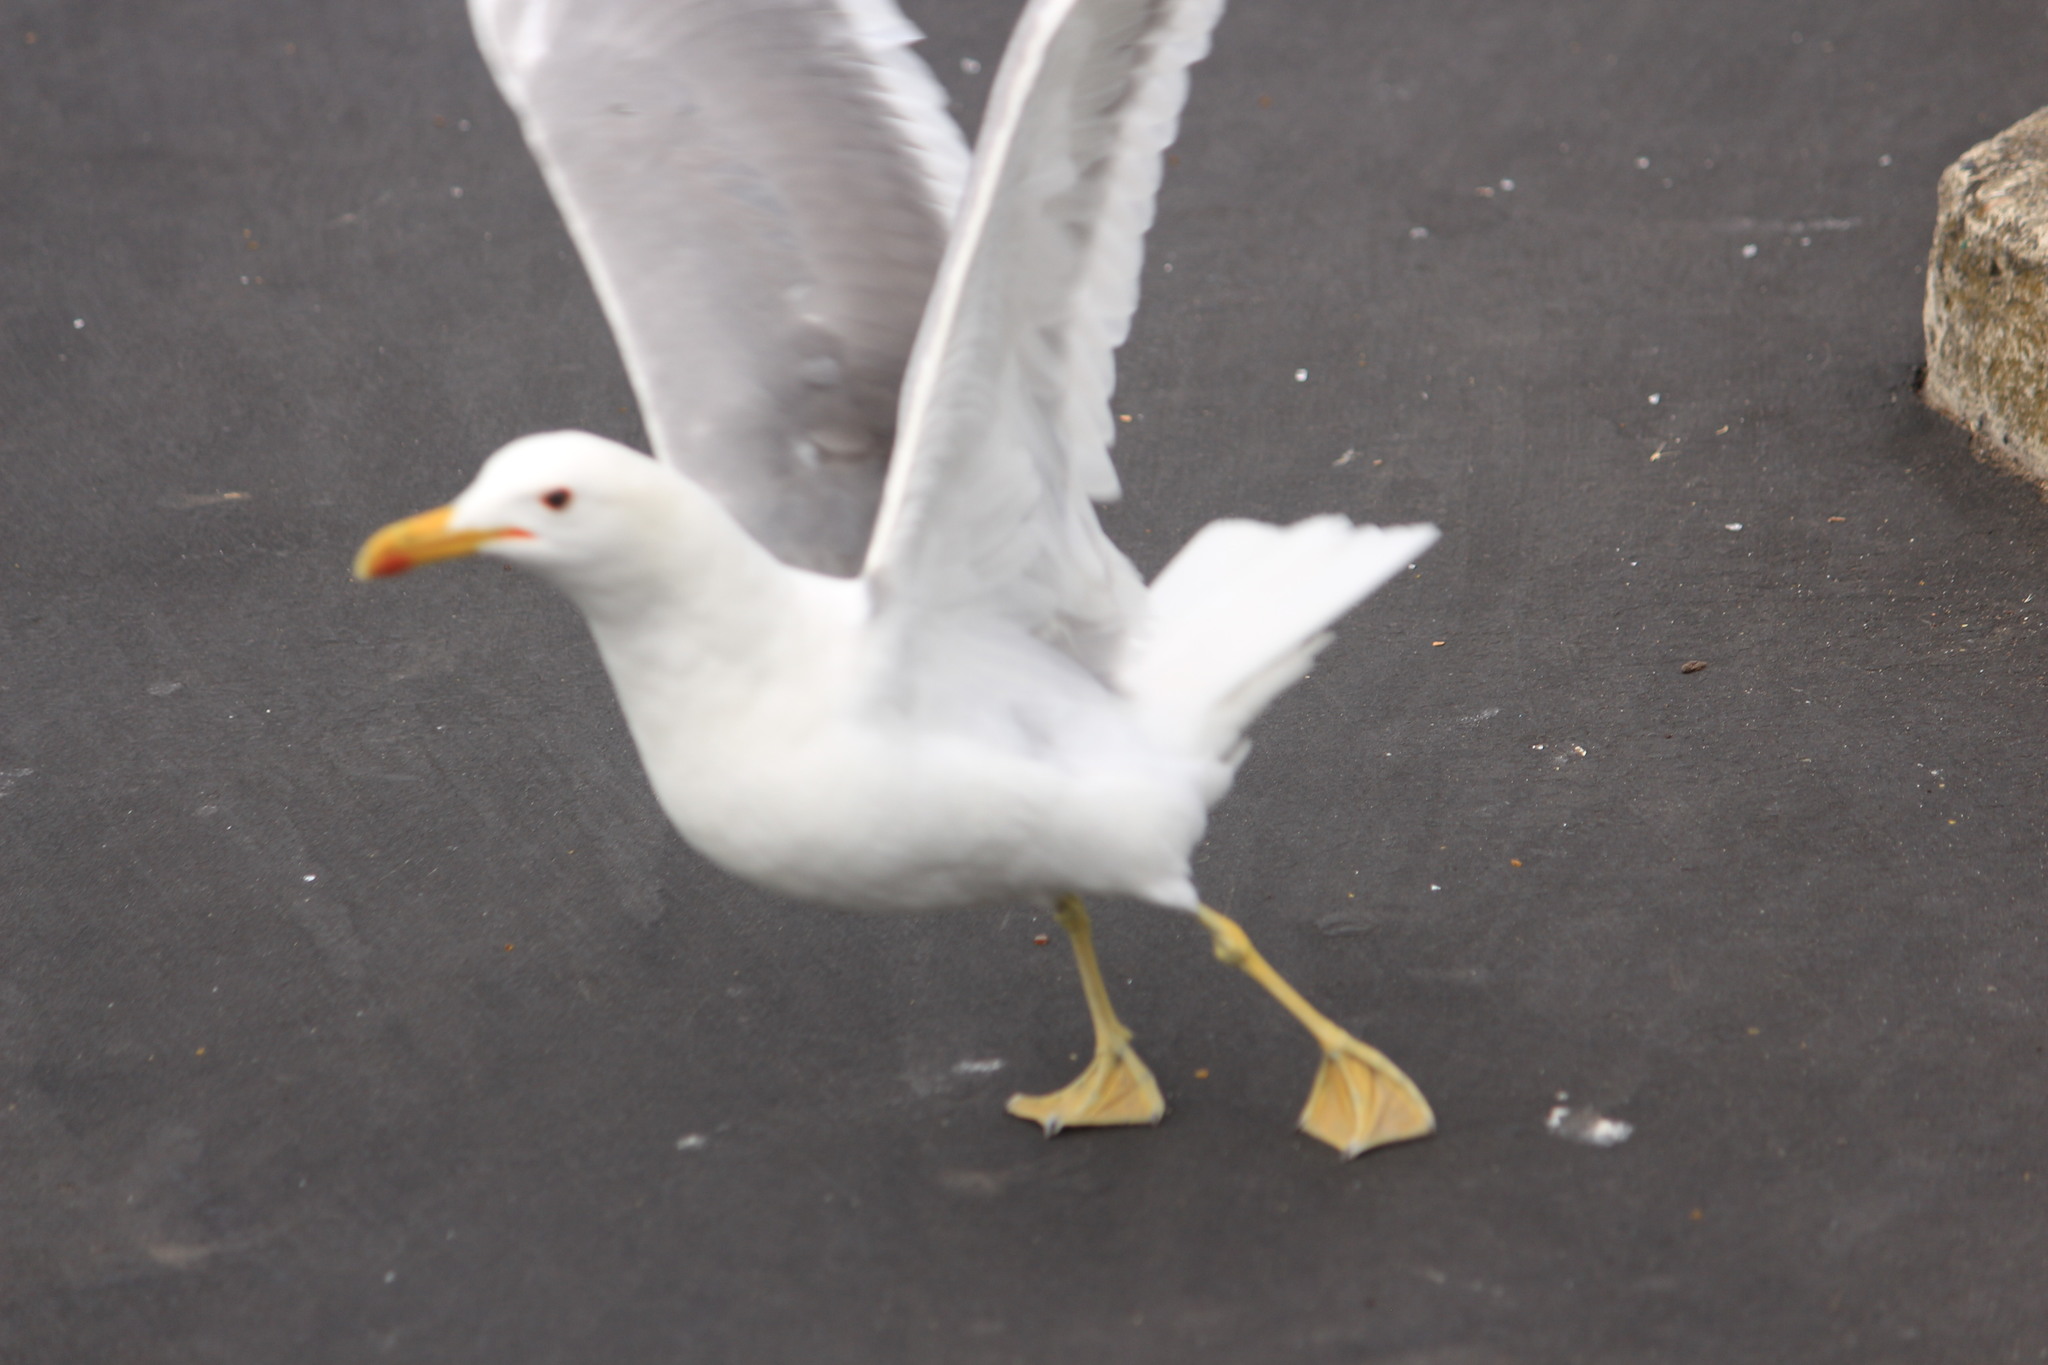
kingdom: Animalia
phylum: Chordata
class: Aves
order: Charadriiformes
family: Laridae
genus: Larus
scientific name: Larus californicus
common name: California gull
